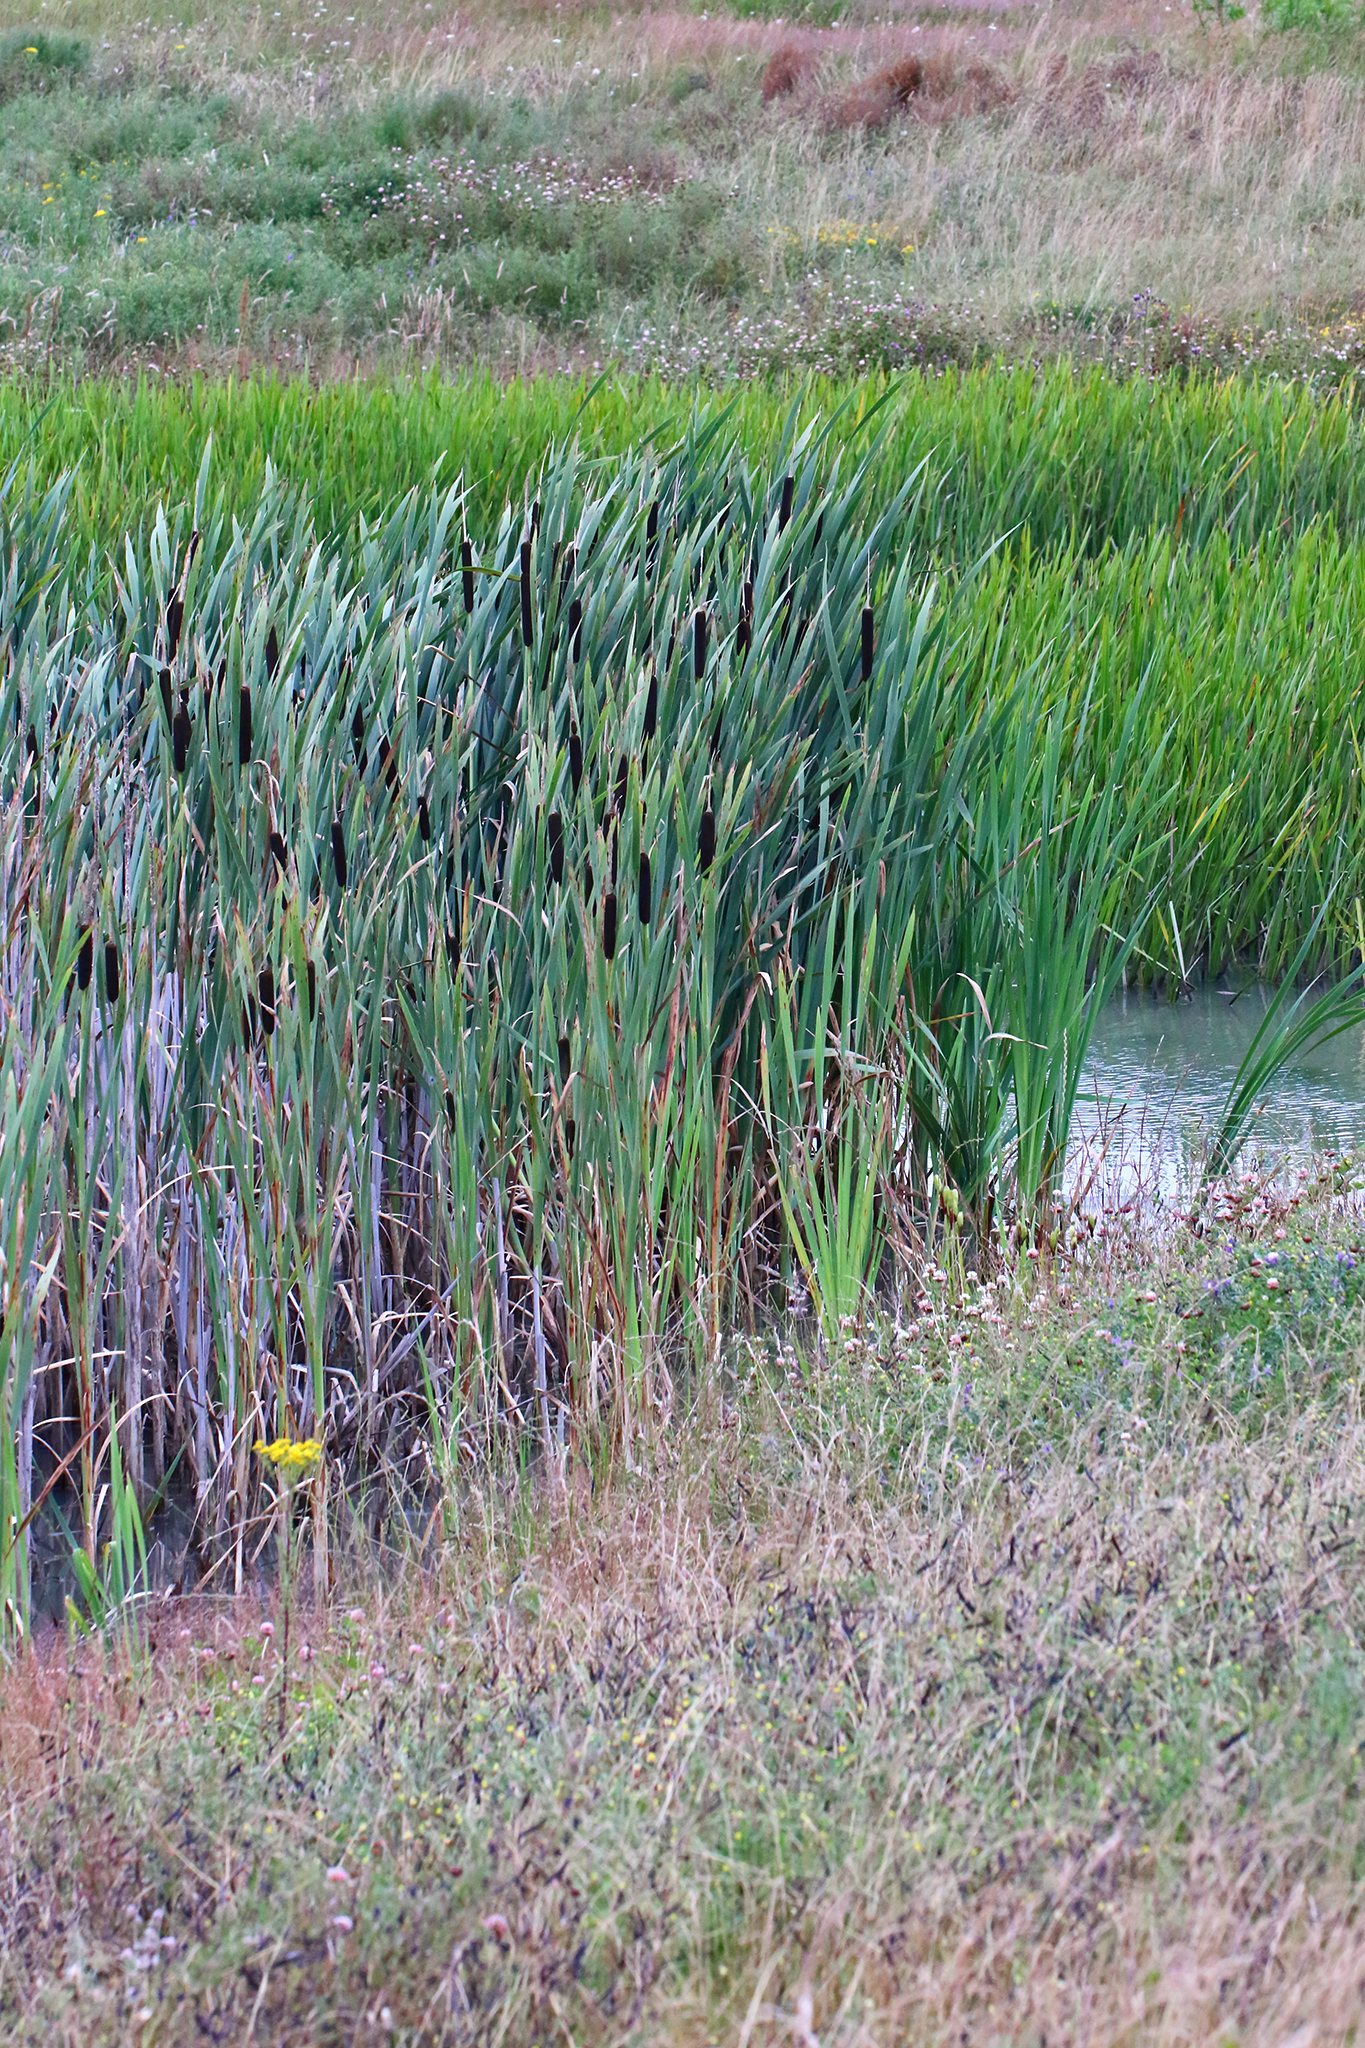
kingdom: Plantae
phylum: Tracheophyta
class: Liliopsida
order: Poales
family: Typhaceae
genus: Typha
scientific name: Typha latifolia
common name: Broadleaf cattail
